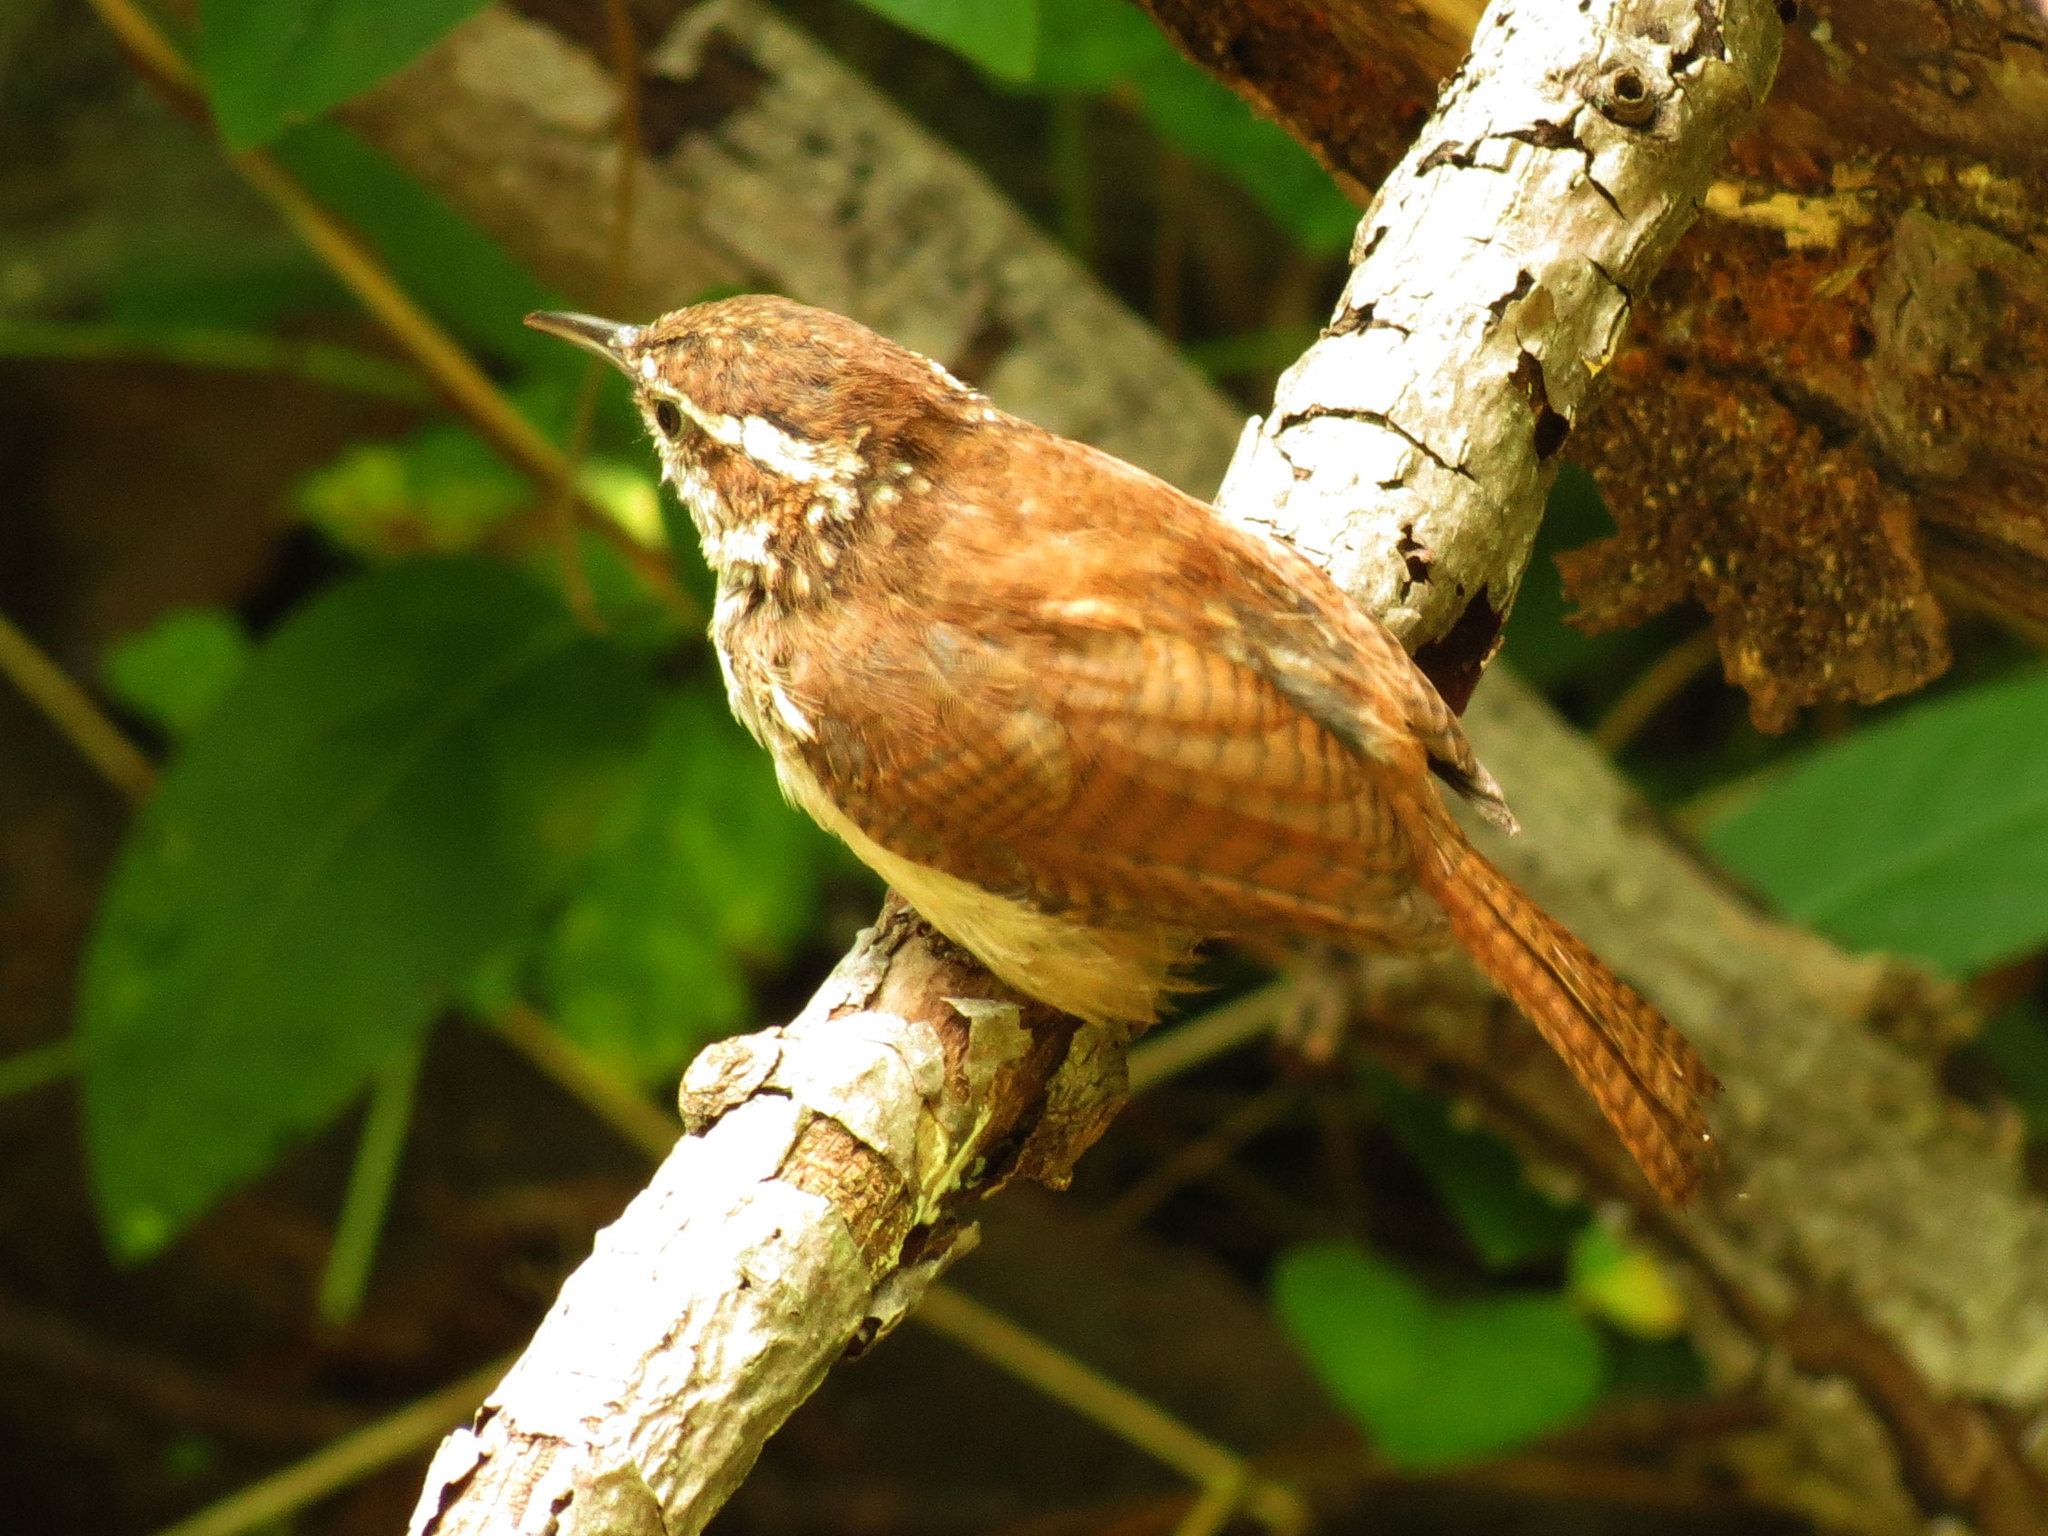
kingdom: Animalia
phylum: Chordata
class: Aves
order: Passeriformes
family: Troglodytidae
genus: Thryothorus
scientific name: Thryothorus ludovicianus
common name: Carolina wren
